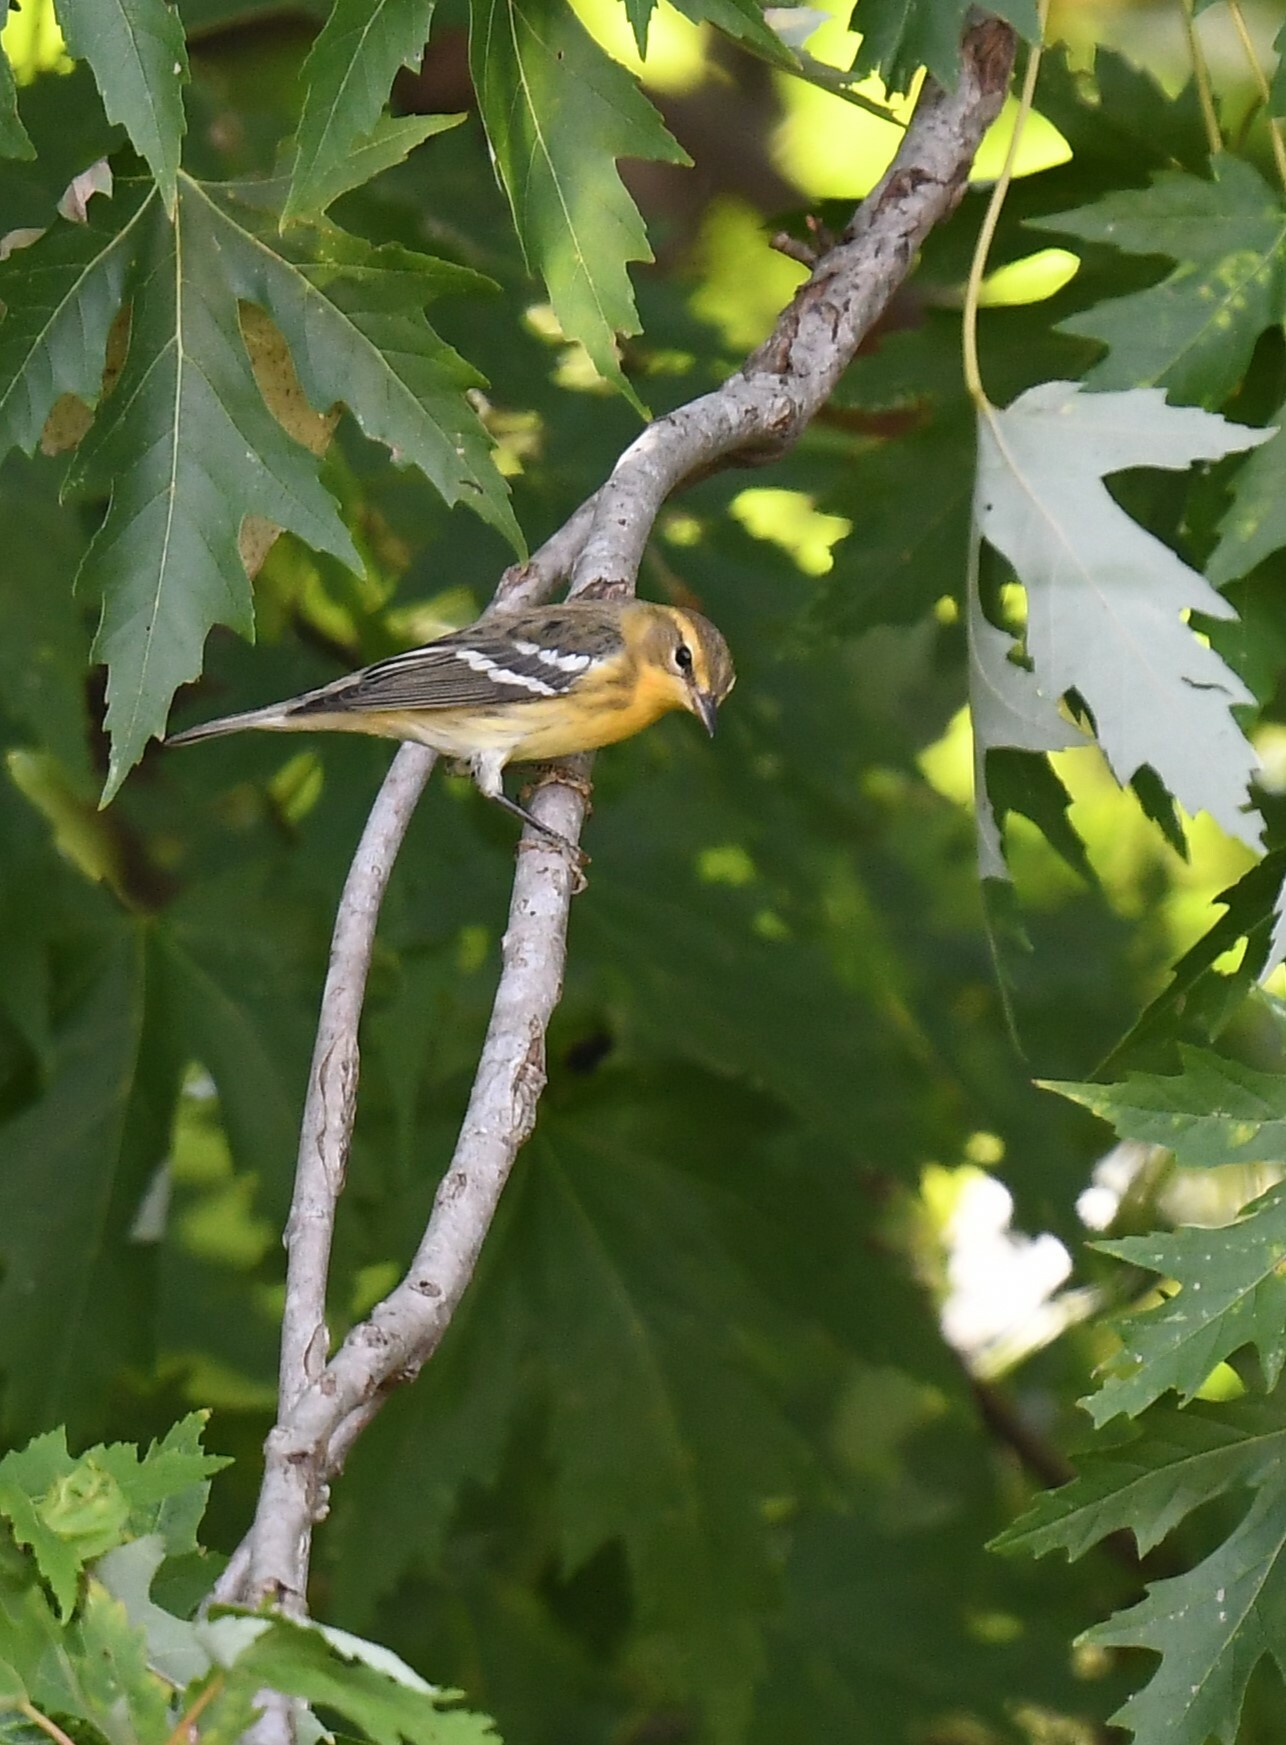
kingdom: Animalia
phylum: Chordata
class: Aves
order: Passeriformes
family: Parulidae
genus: Setophaga
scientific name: Setophaga fusca
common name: Blackburnian warbler
